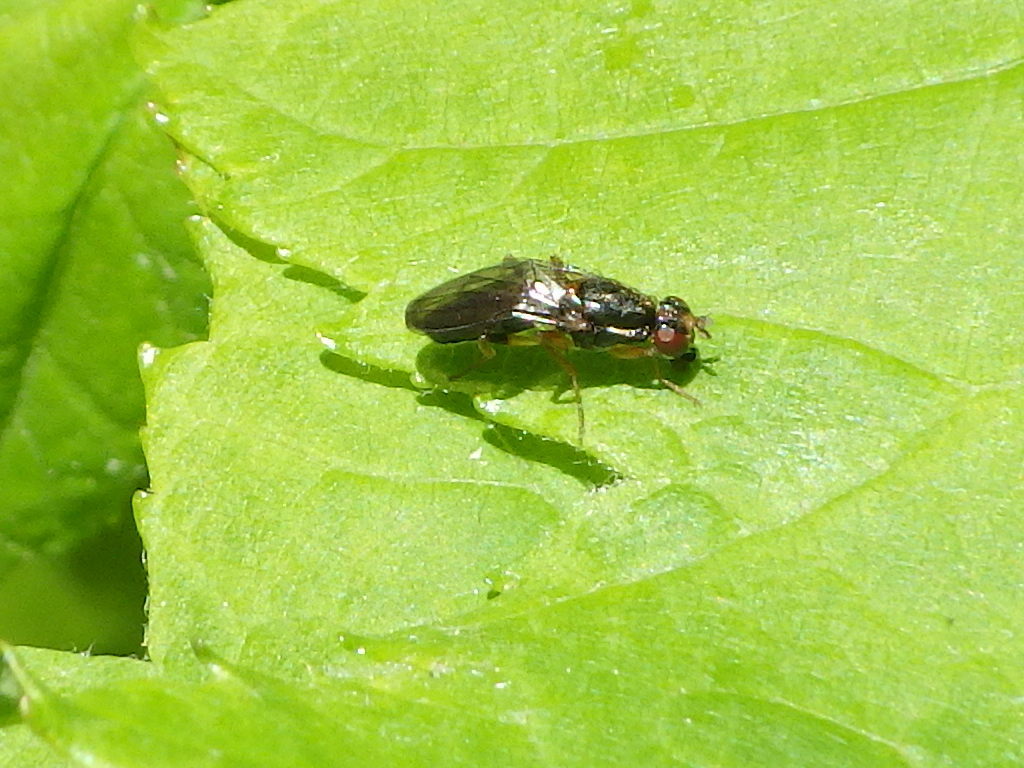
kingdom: Animalia
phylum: Arthropoda
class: Insecta
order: Diptera
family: Psilidae
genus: Chyliza
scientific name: Chyliza erudita
